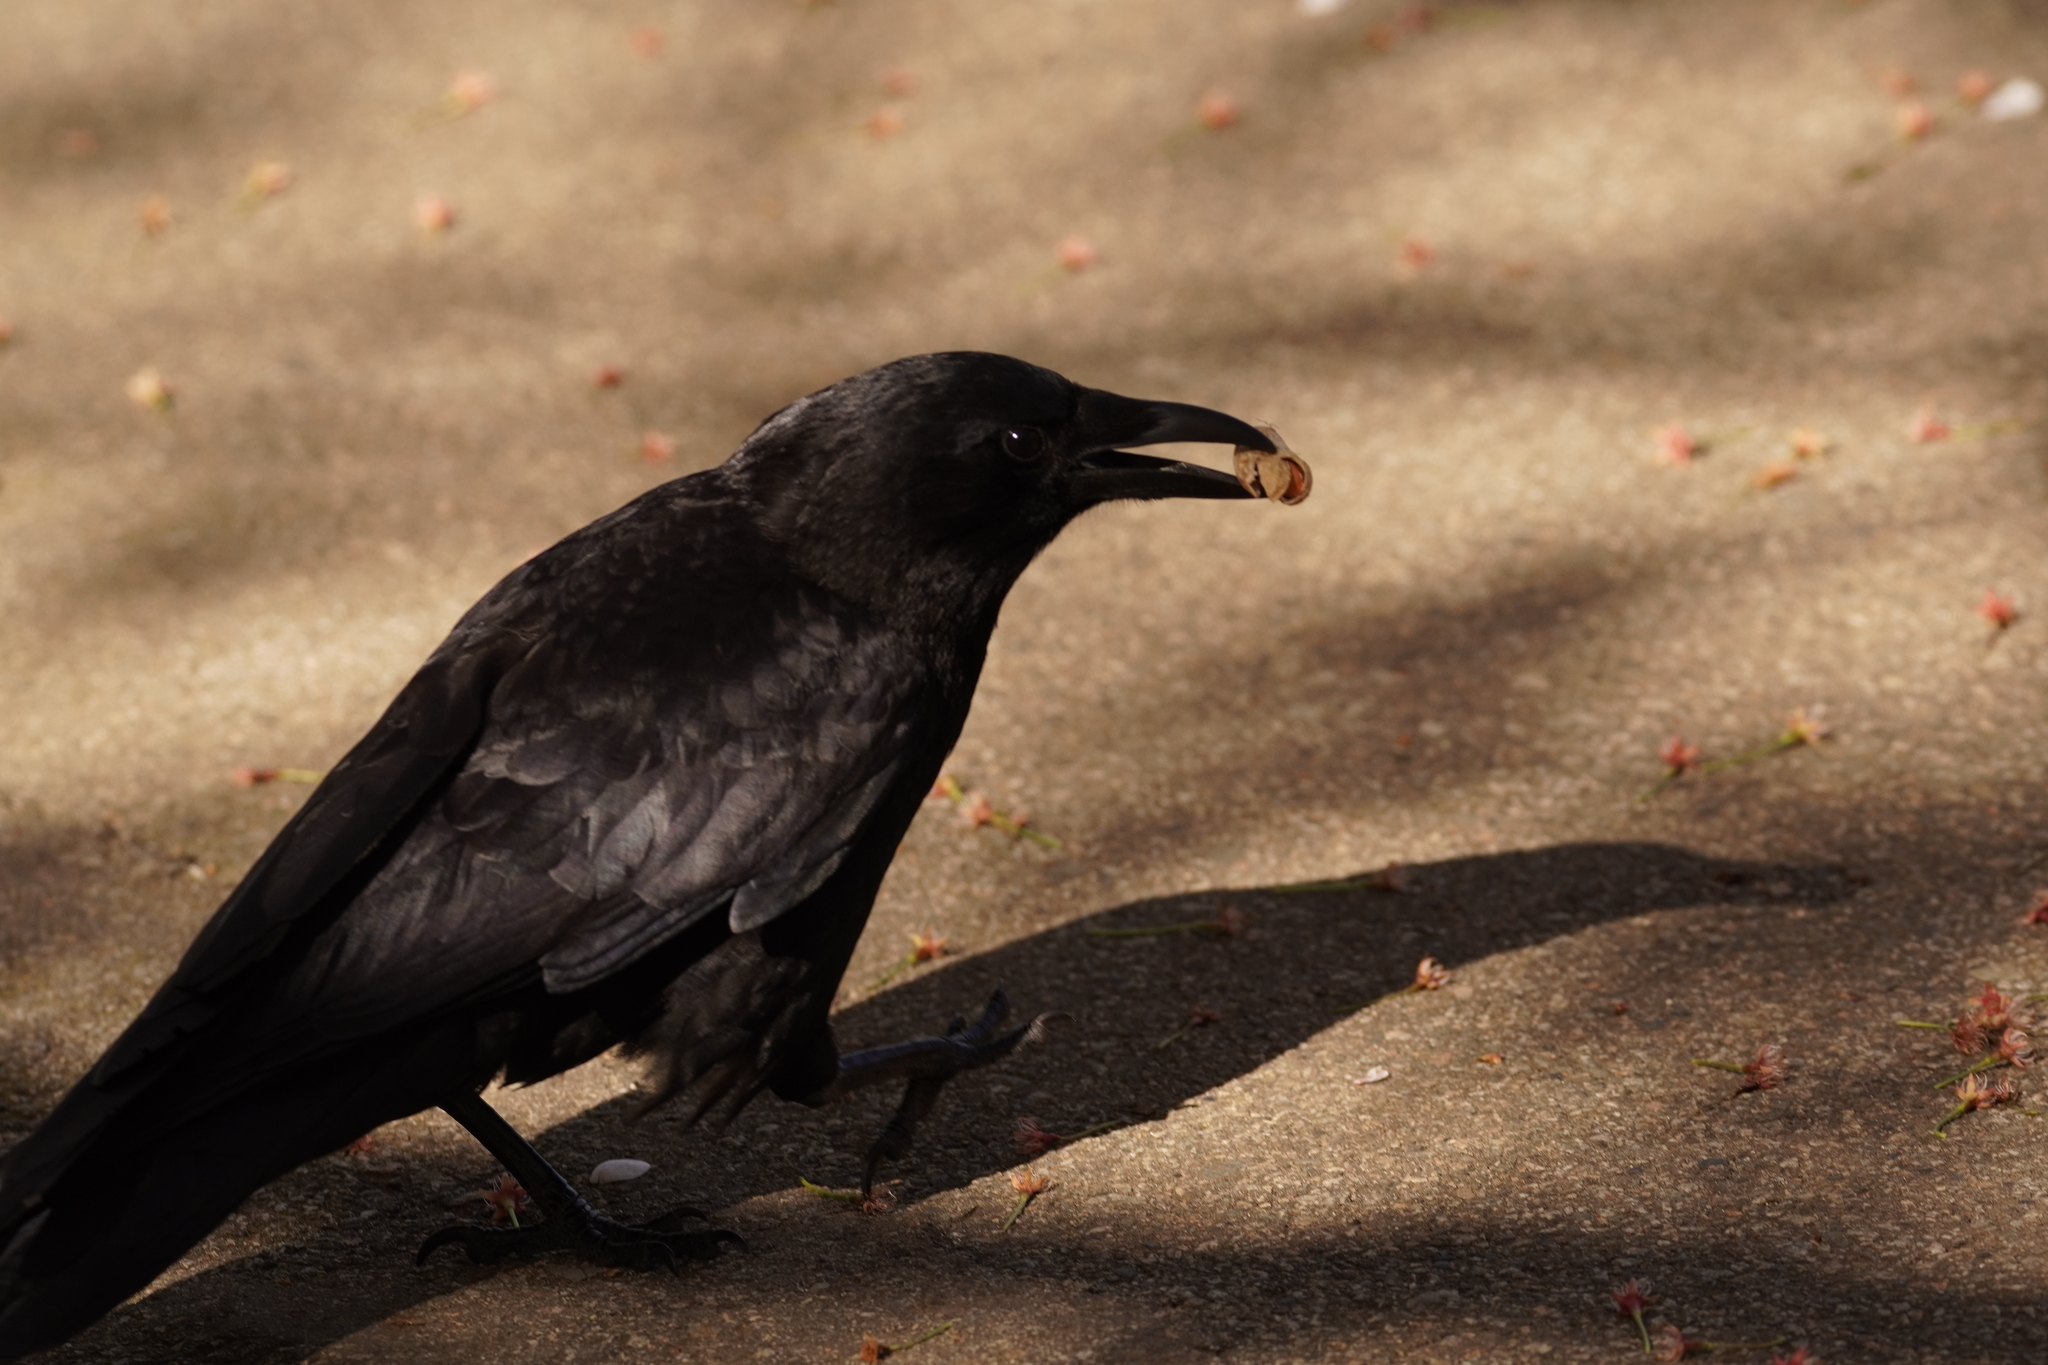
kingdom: Animalia
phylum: Chordata
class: Aves
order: Passeriformes
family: Corvidae
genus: Corvus
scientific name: Corvus brachyrhynchos
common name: American crow
